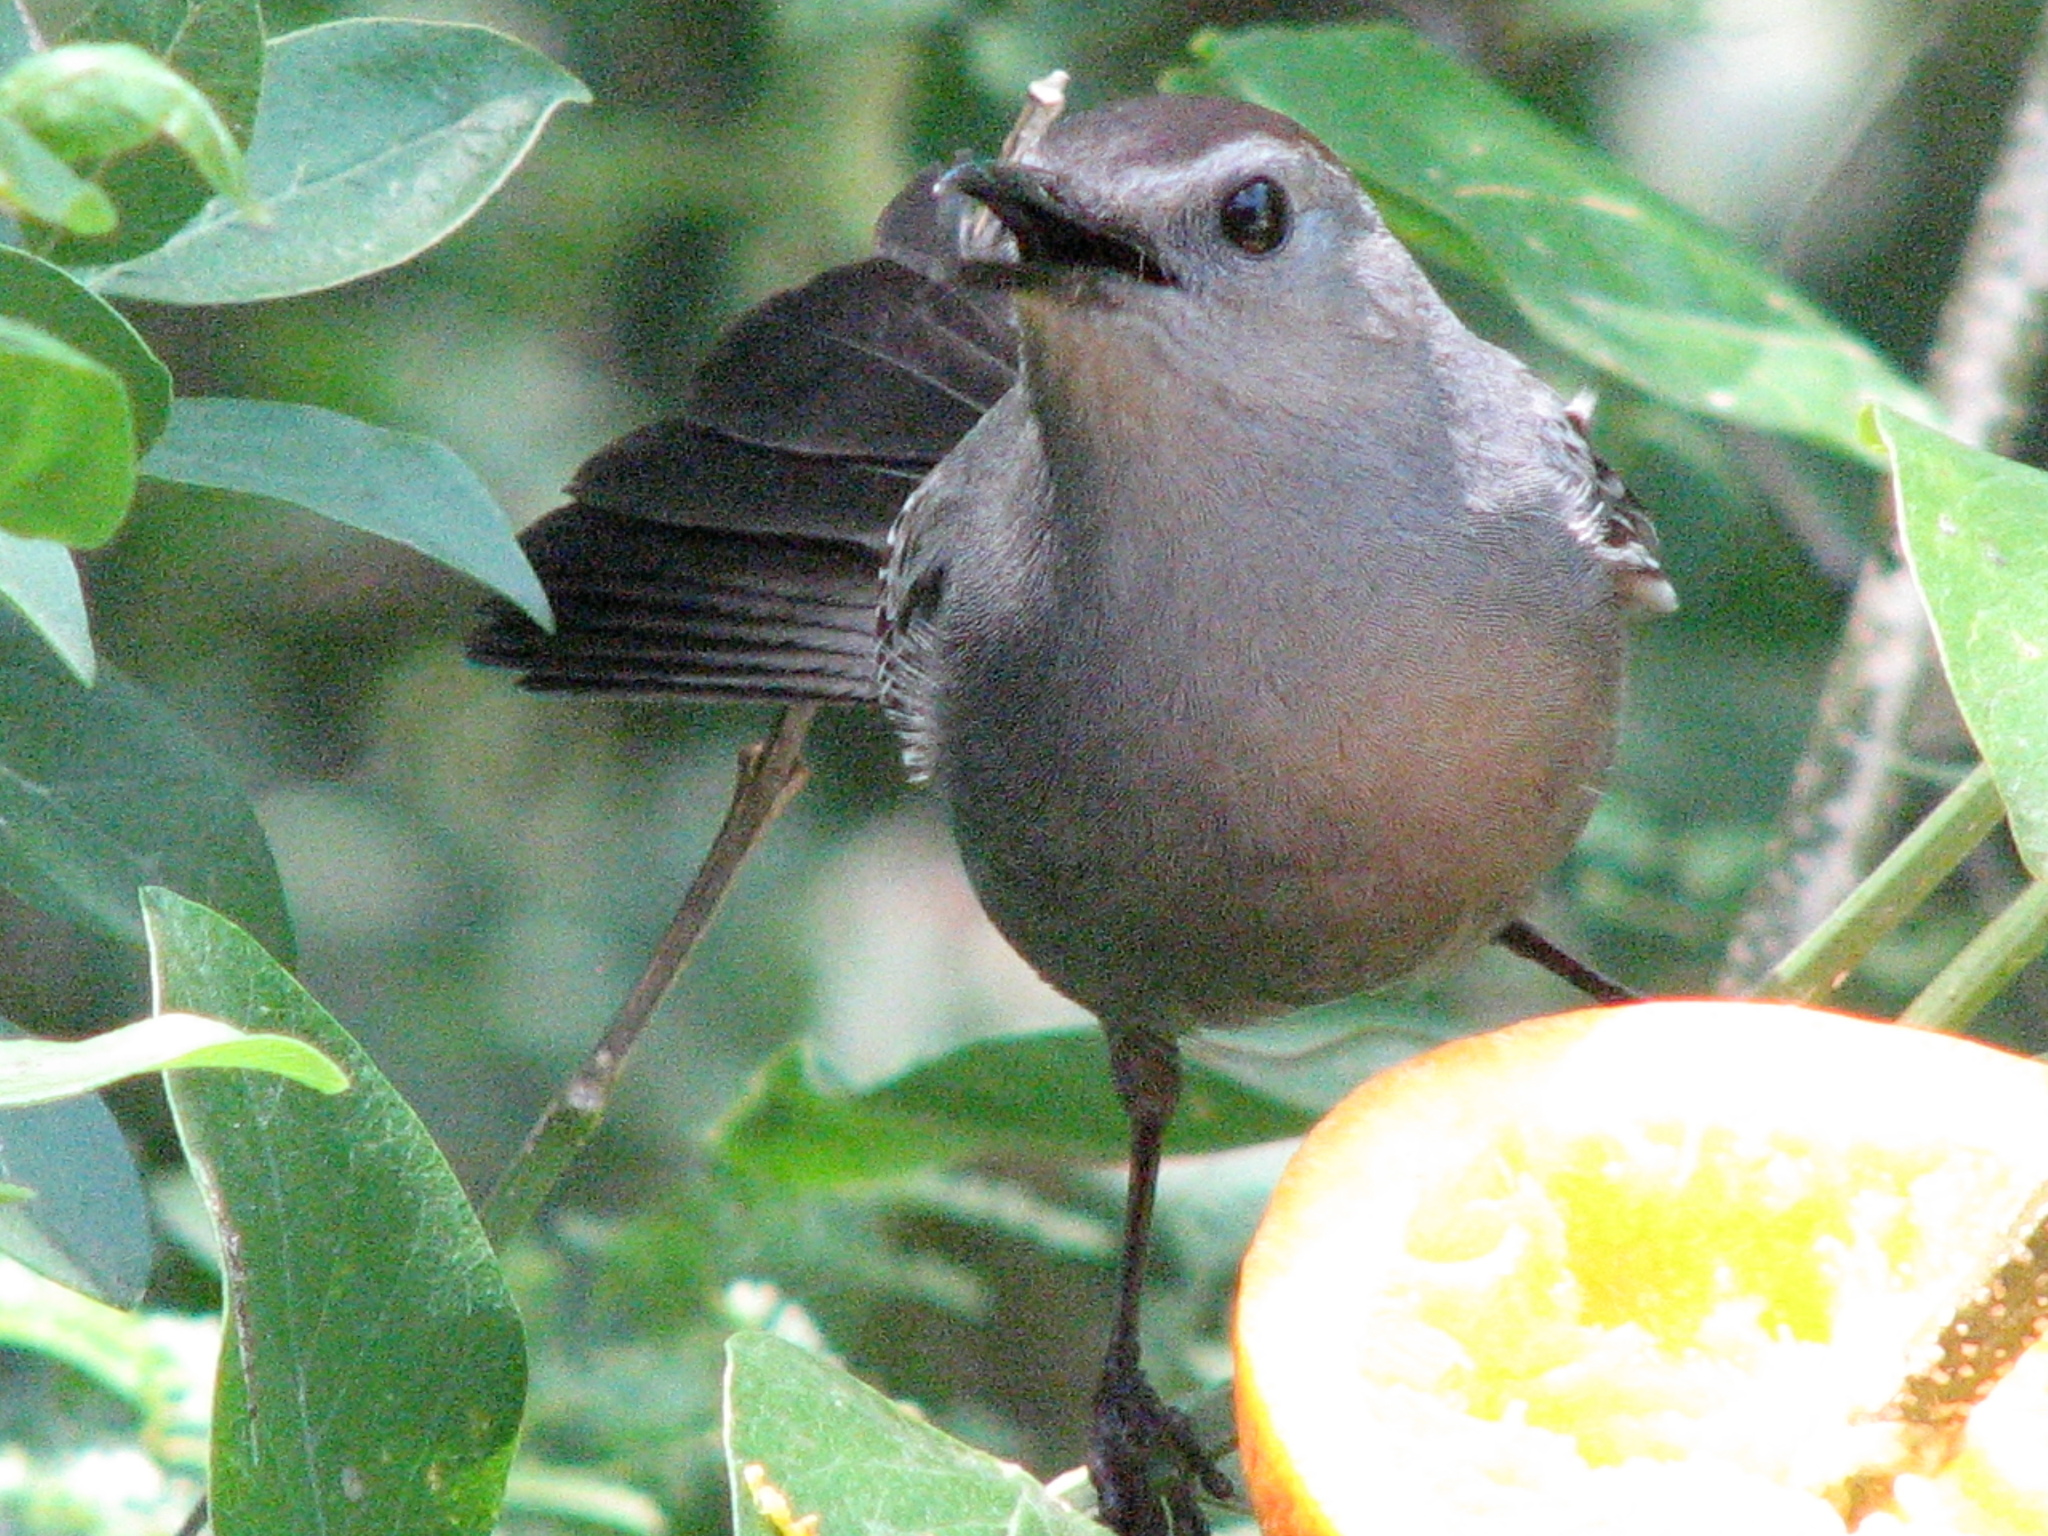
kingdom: Animalia
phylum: Chordata
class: Aves
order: Passeriformes
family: Mimidae
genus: Dumetella
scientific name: Dumetella carolinensis
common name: Gray catbird
